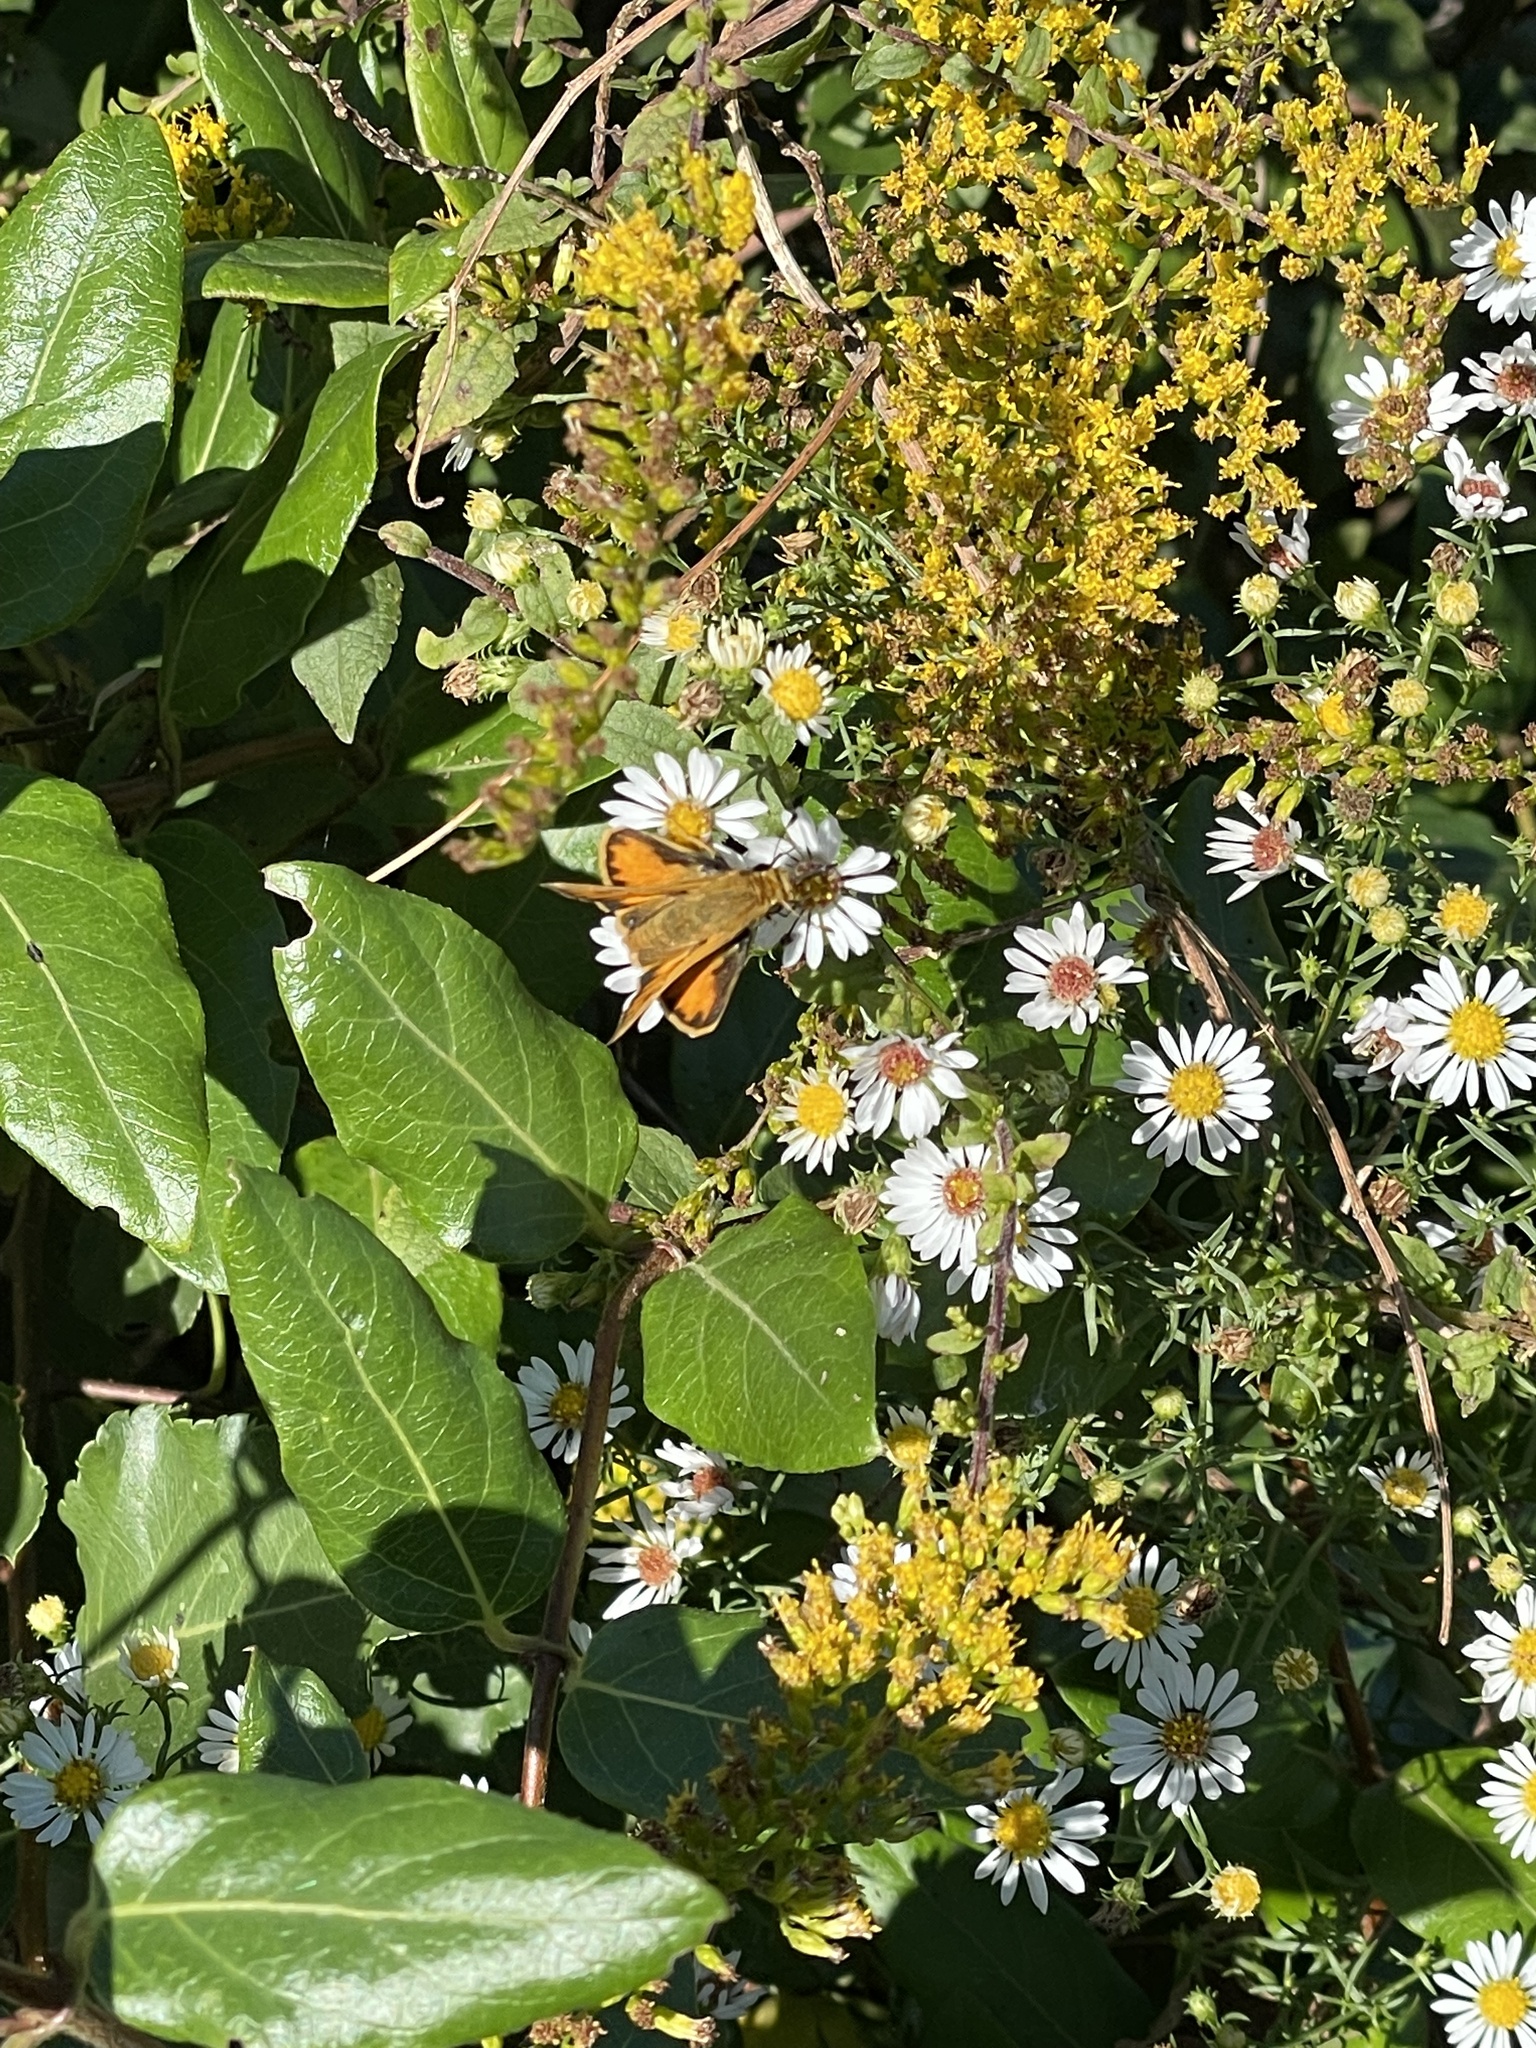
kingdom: Animalia
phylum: Arthropoda
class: Insecta
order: Lepidoptera
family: Hesperiidae
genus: Hylephila
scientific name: Hylephila phyleus
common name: Fiery skipper
